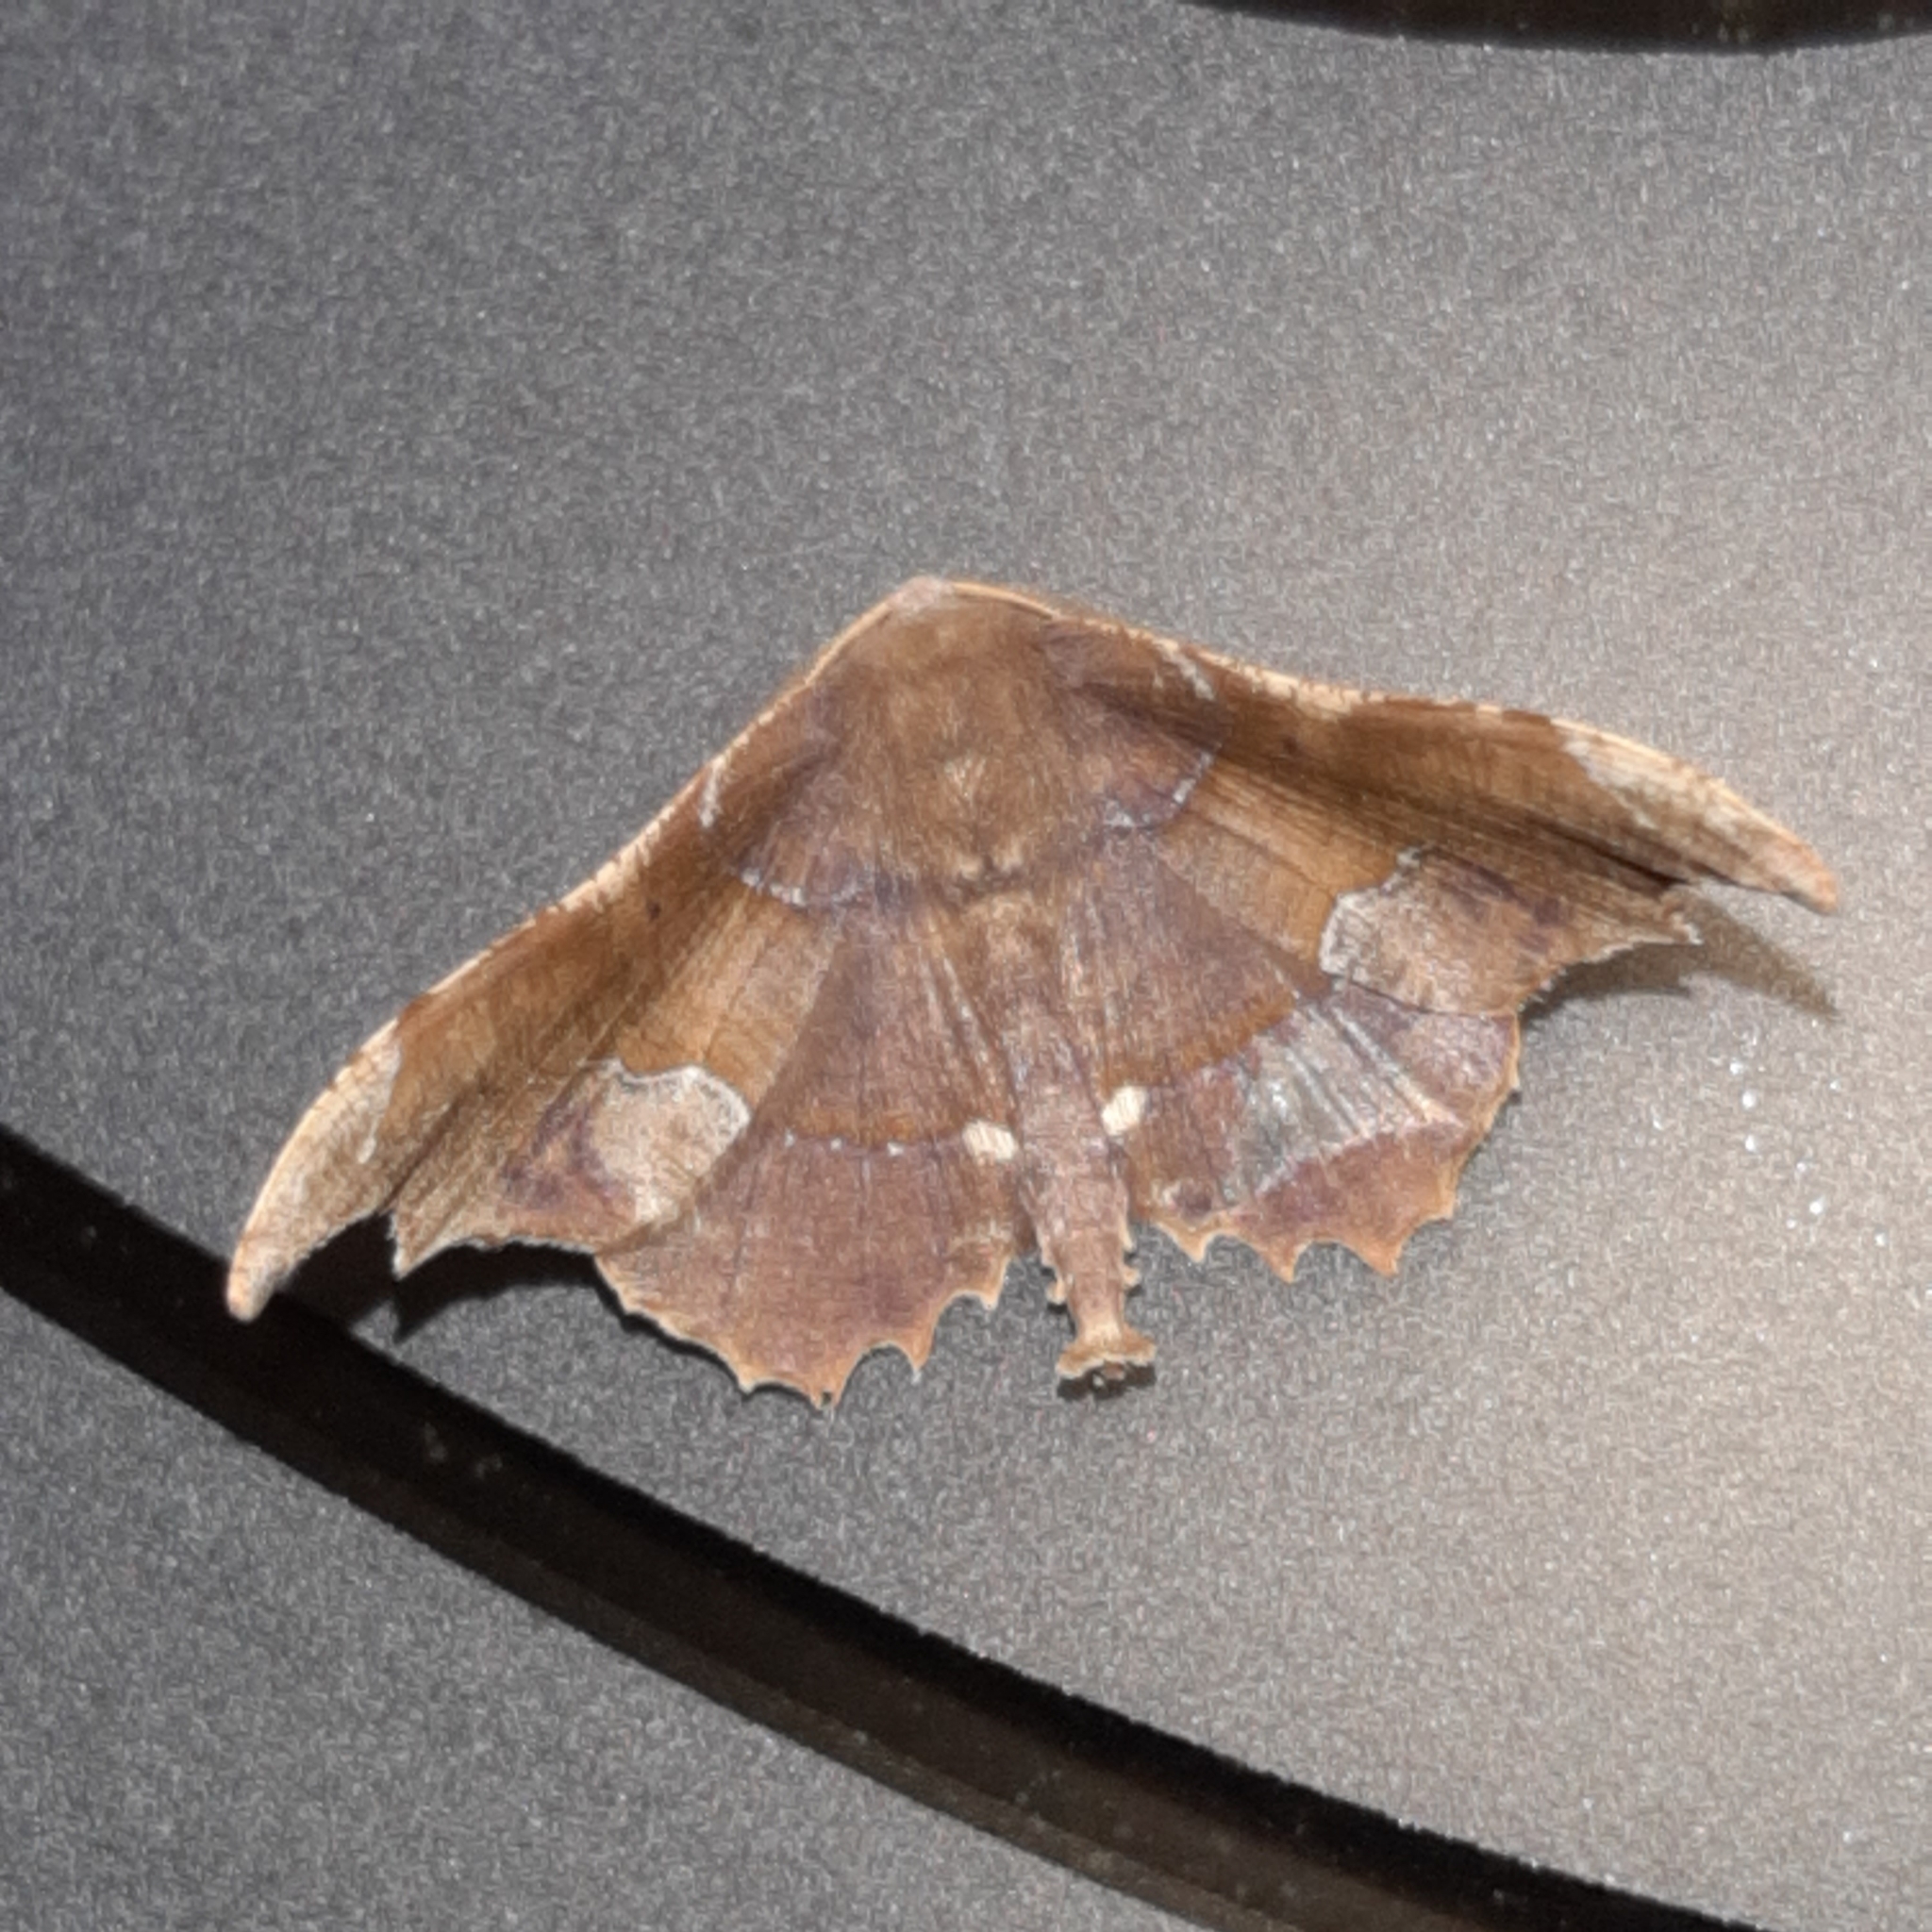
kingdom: Animalia
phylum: Arthropoda
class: Insecta
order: Lepidoptera
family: Geometridae
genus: Patalene
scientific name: Patalene aenetusaria
